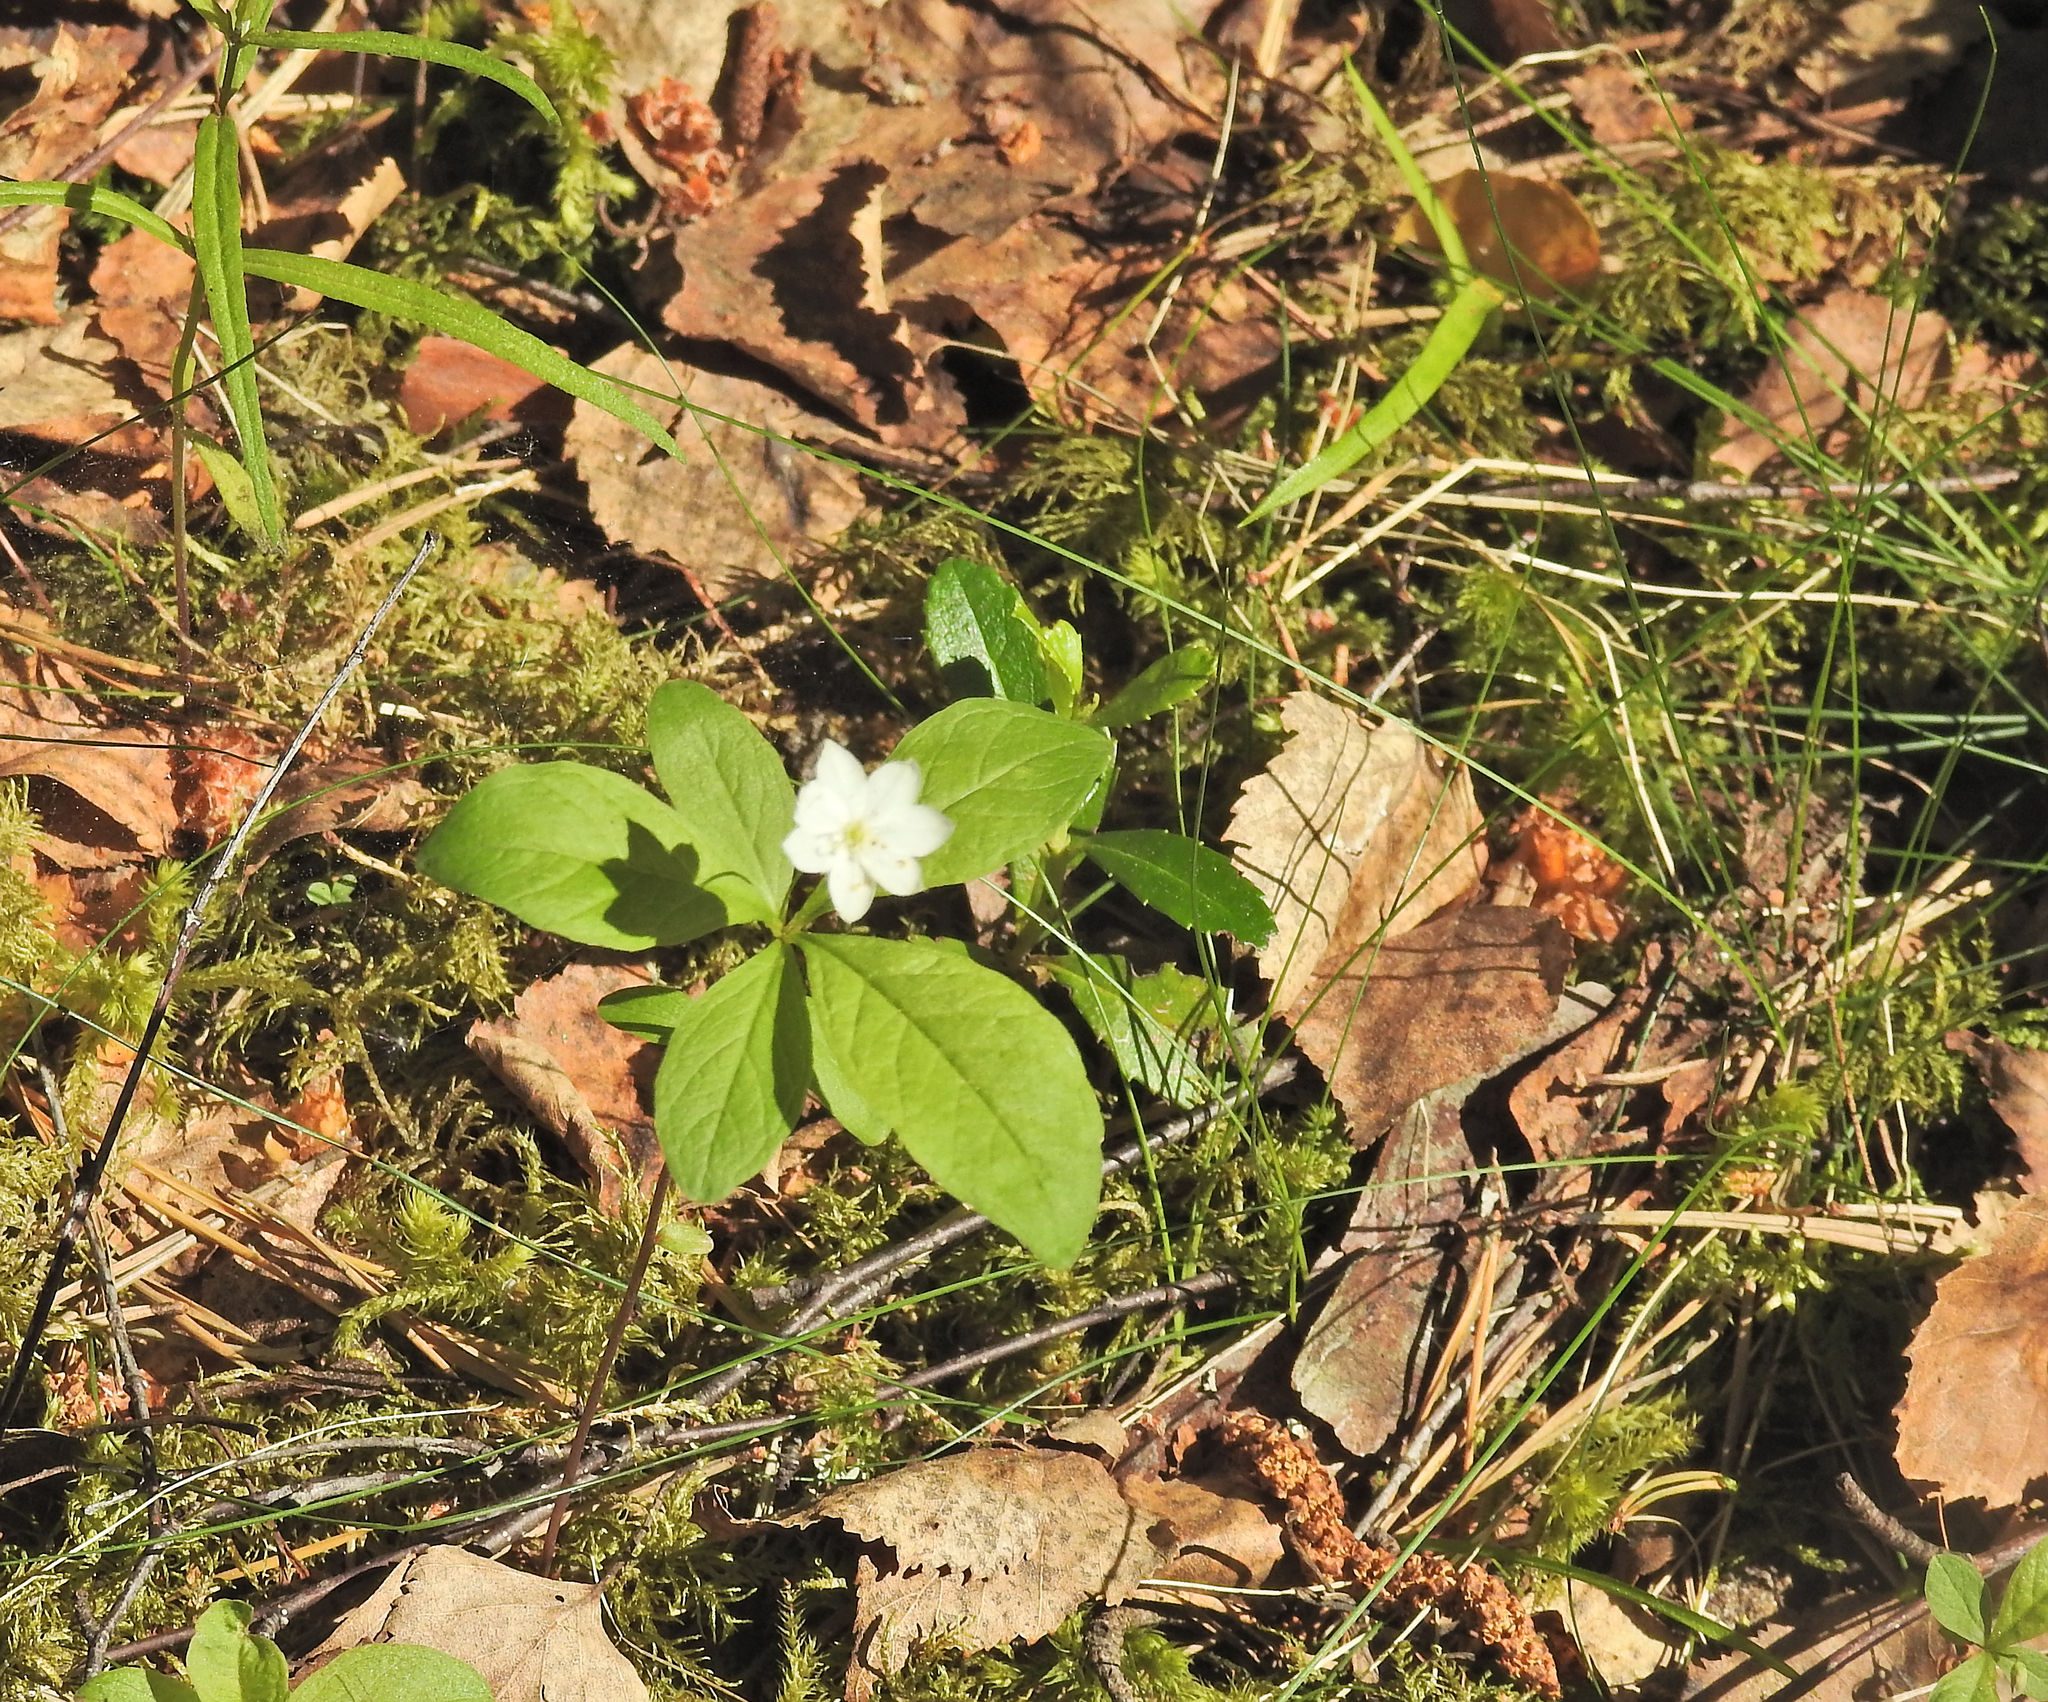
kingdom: Plantae
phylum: Tracheophyta
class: Magnoliopsida
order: Ericales
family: Primulaceae
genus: Lysimachia
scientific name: Lysimachia europaea
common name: Arctic starflower
